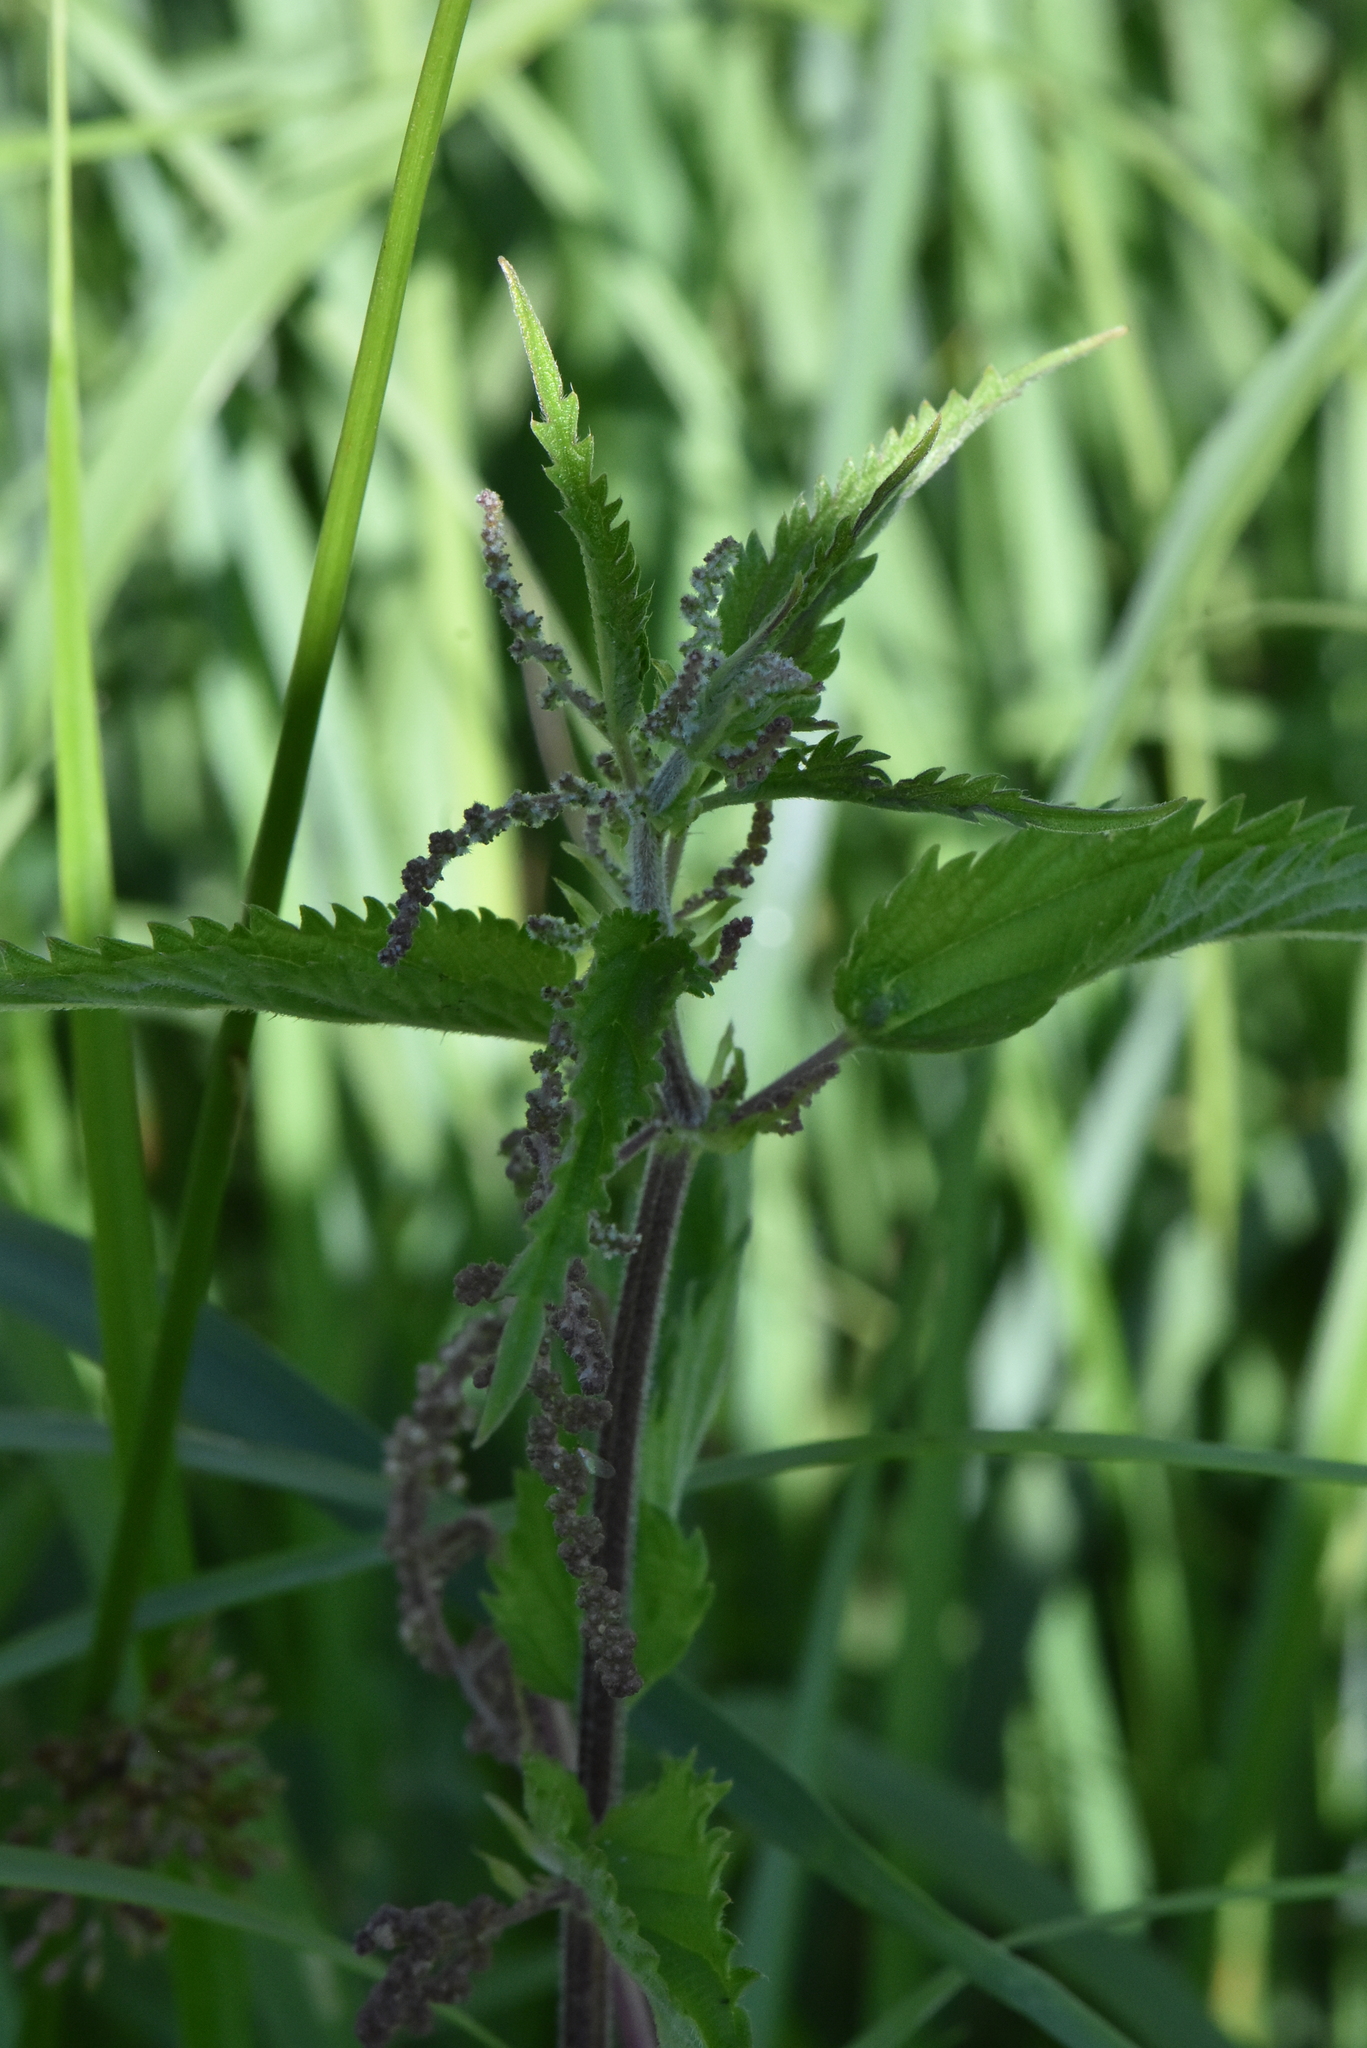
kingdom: Plantae
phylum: Tracheophyta
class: Magnoliopsida
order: Rosales
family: Urticaceae
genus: Urtica
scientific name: Urtica dioica
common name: Common nettle
